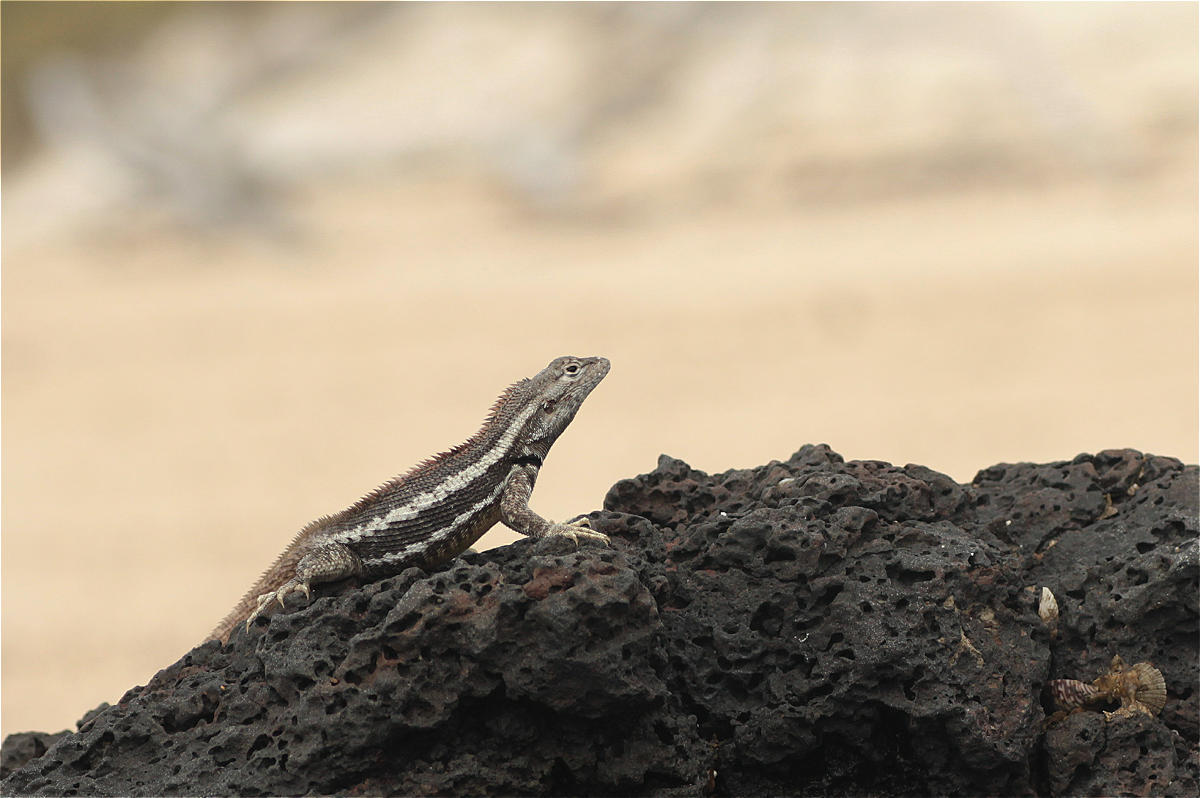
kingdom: Animalia
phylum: Chordata
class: Squamata
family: Tropiduridae
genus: Microlophus
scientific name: Microlophus bivittatus
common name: San cristobal lava lizard
